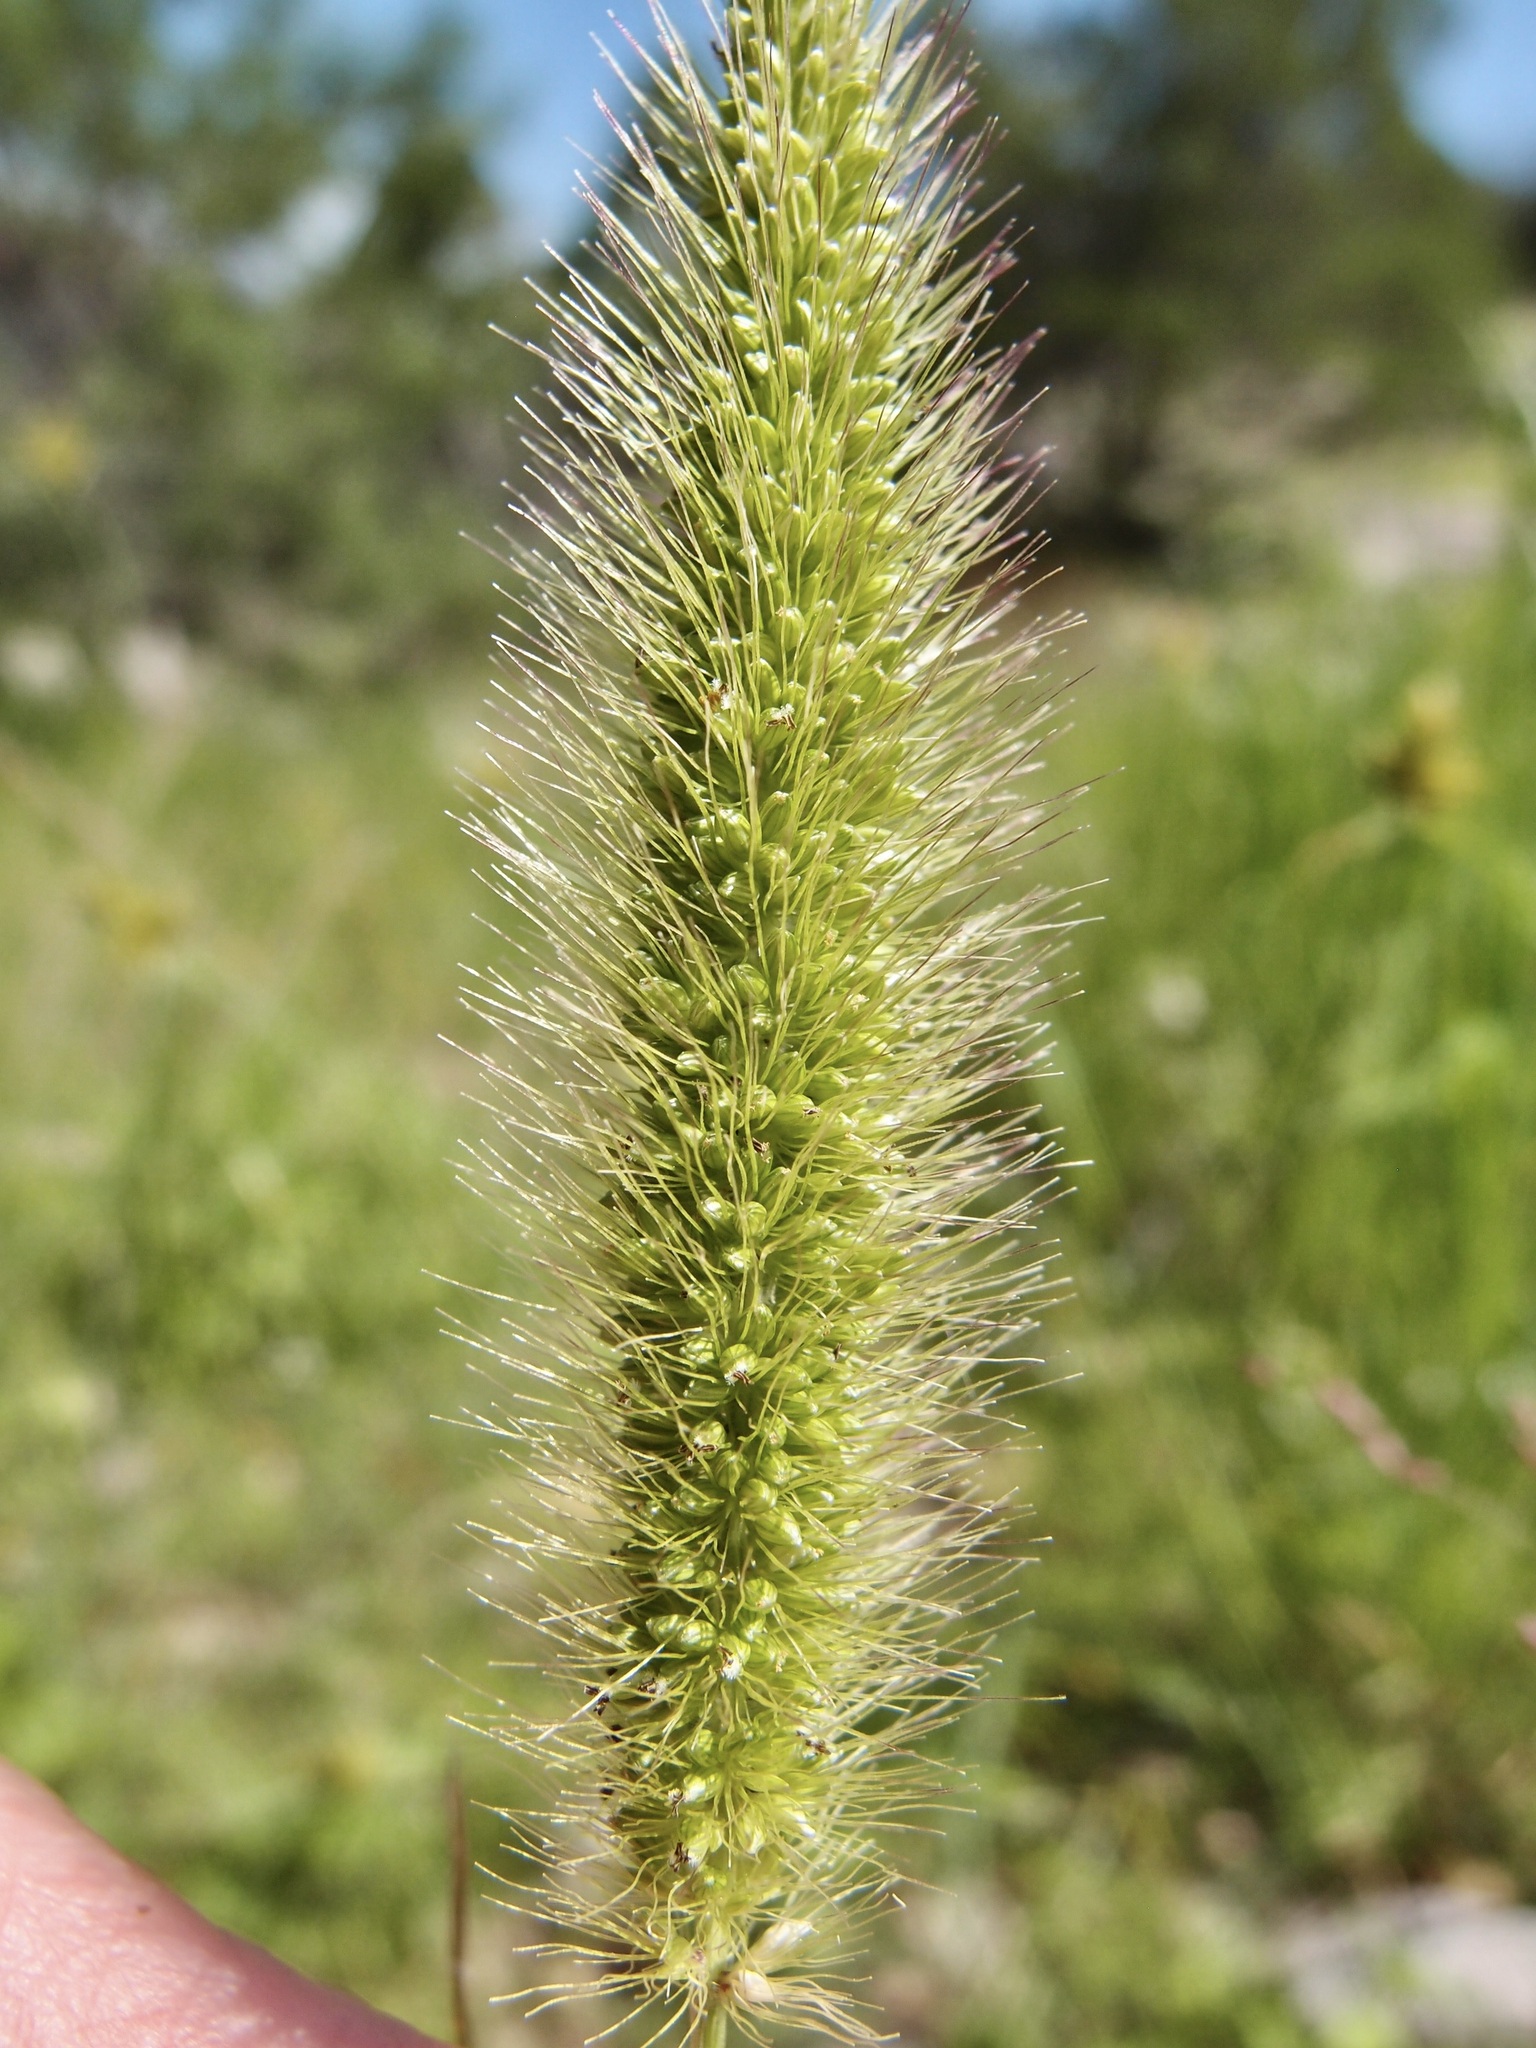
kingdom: Plantae
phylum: Tracheophyta
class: Liliopsida
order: Poales
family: Poaceae
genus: Setaria
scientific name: Setaria pumila
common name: Yellow bristle-grass
